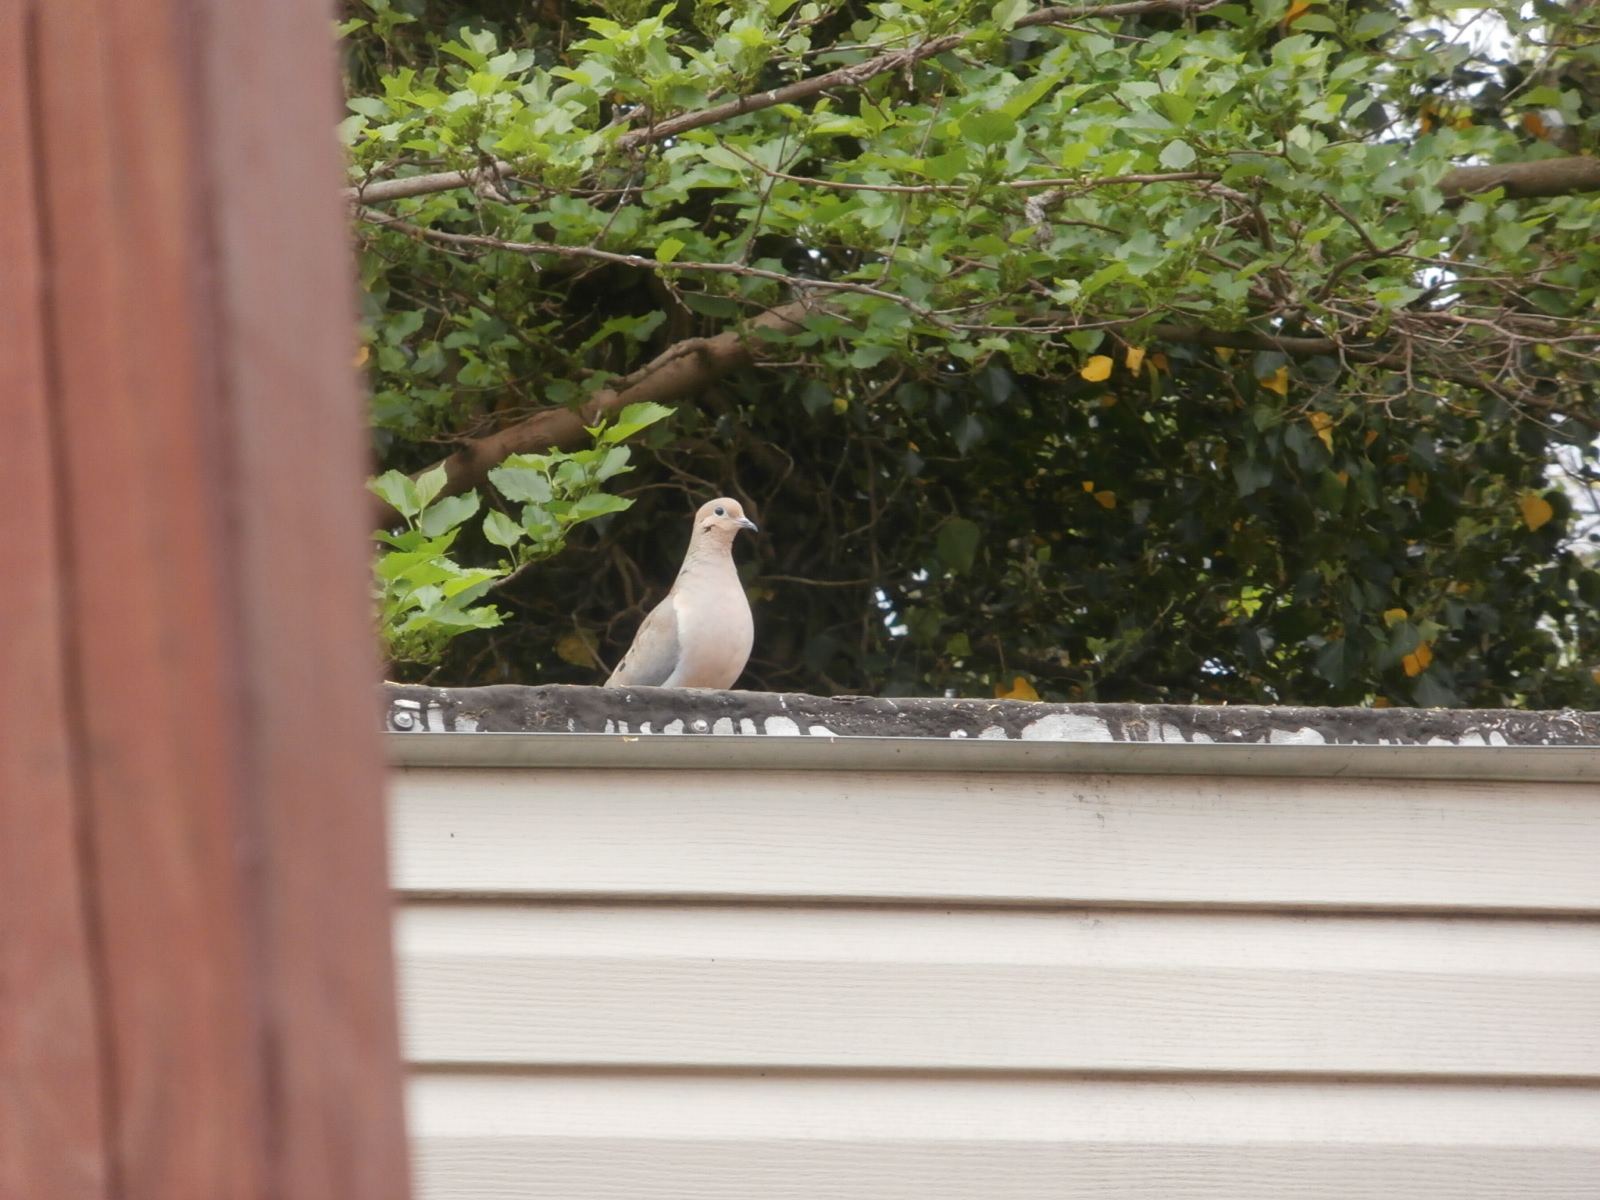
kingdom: Animalia
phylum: Chordata
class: Aves
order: Columbiformes
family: Columbidae
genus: Zenaida
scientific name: Zenaida macroura
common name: Mourning dove
